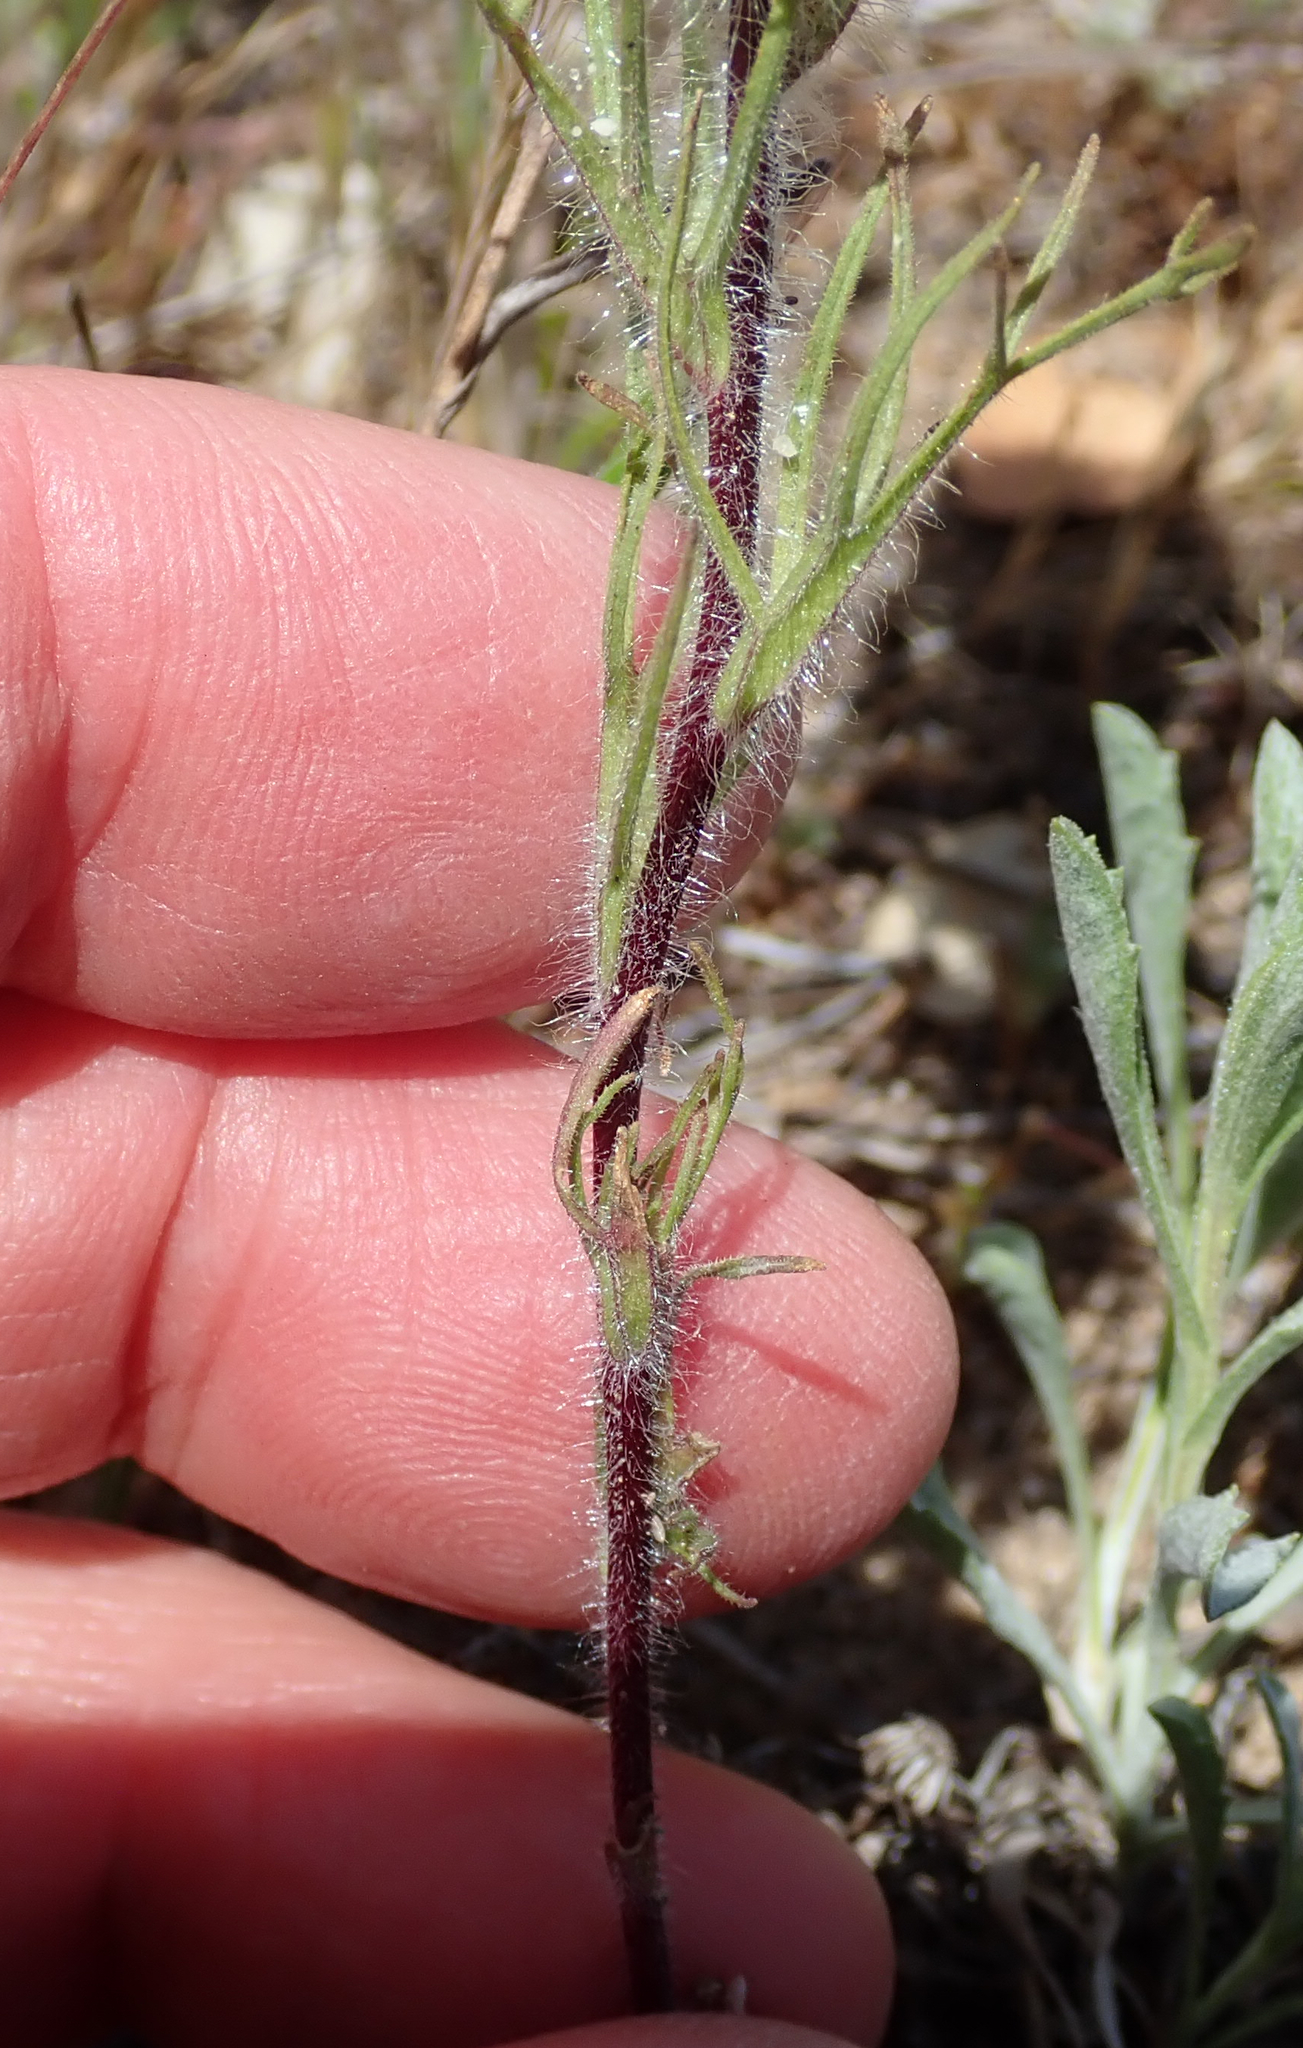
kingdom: Plantae
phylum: Tracheophyta
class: Magnoliopsida
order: Lamiales
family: Orobanchaceae
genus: Castilleja
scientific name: Castilleja exserta
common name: Purple owl-clover
